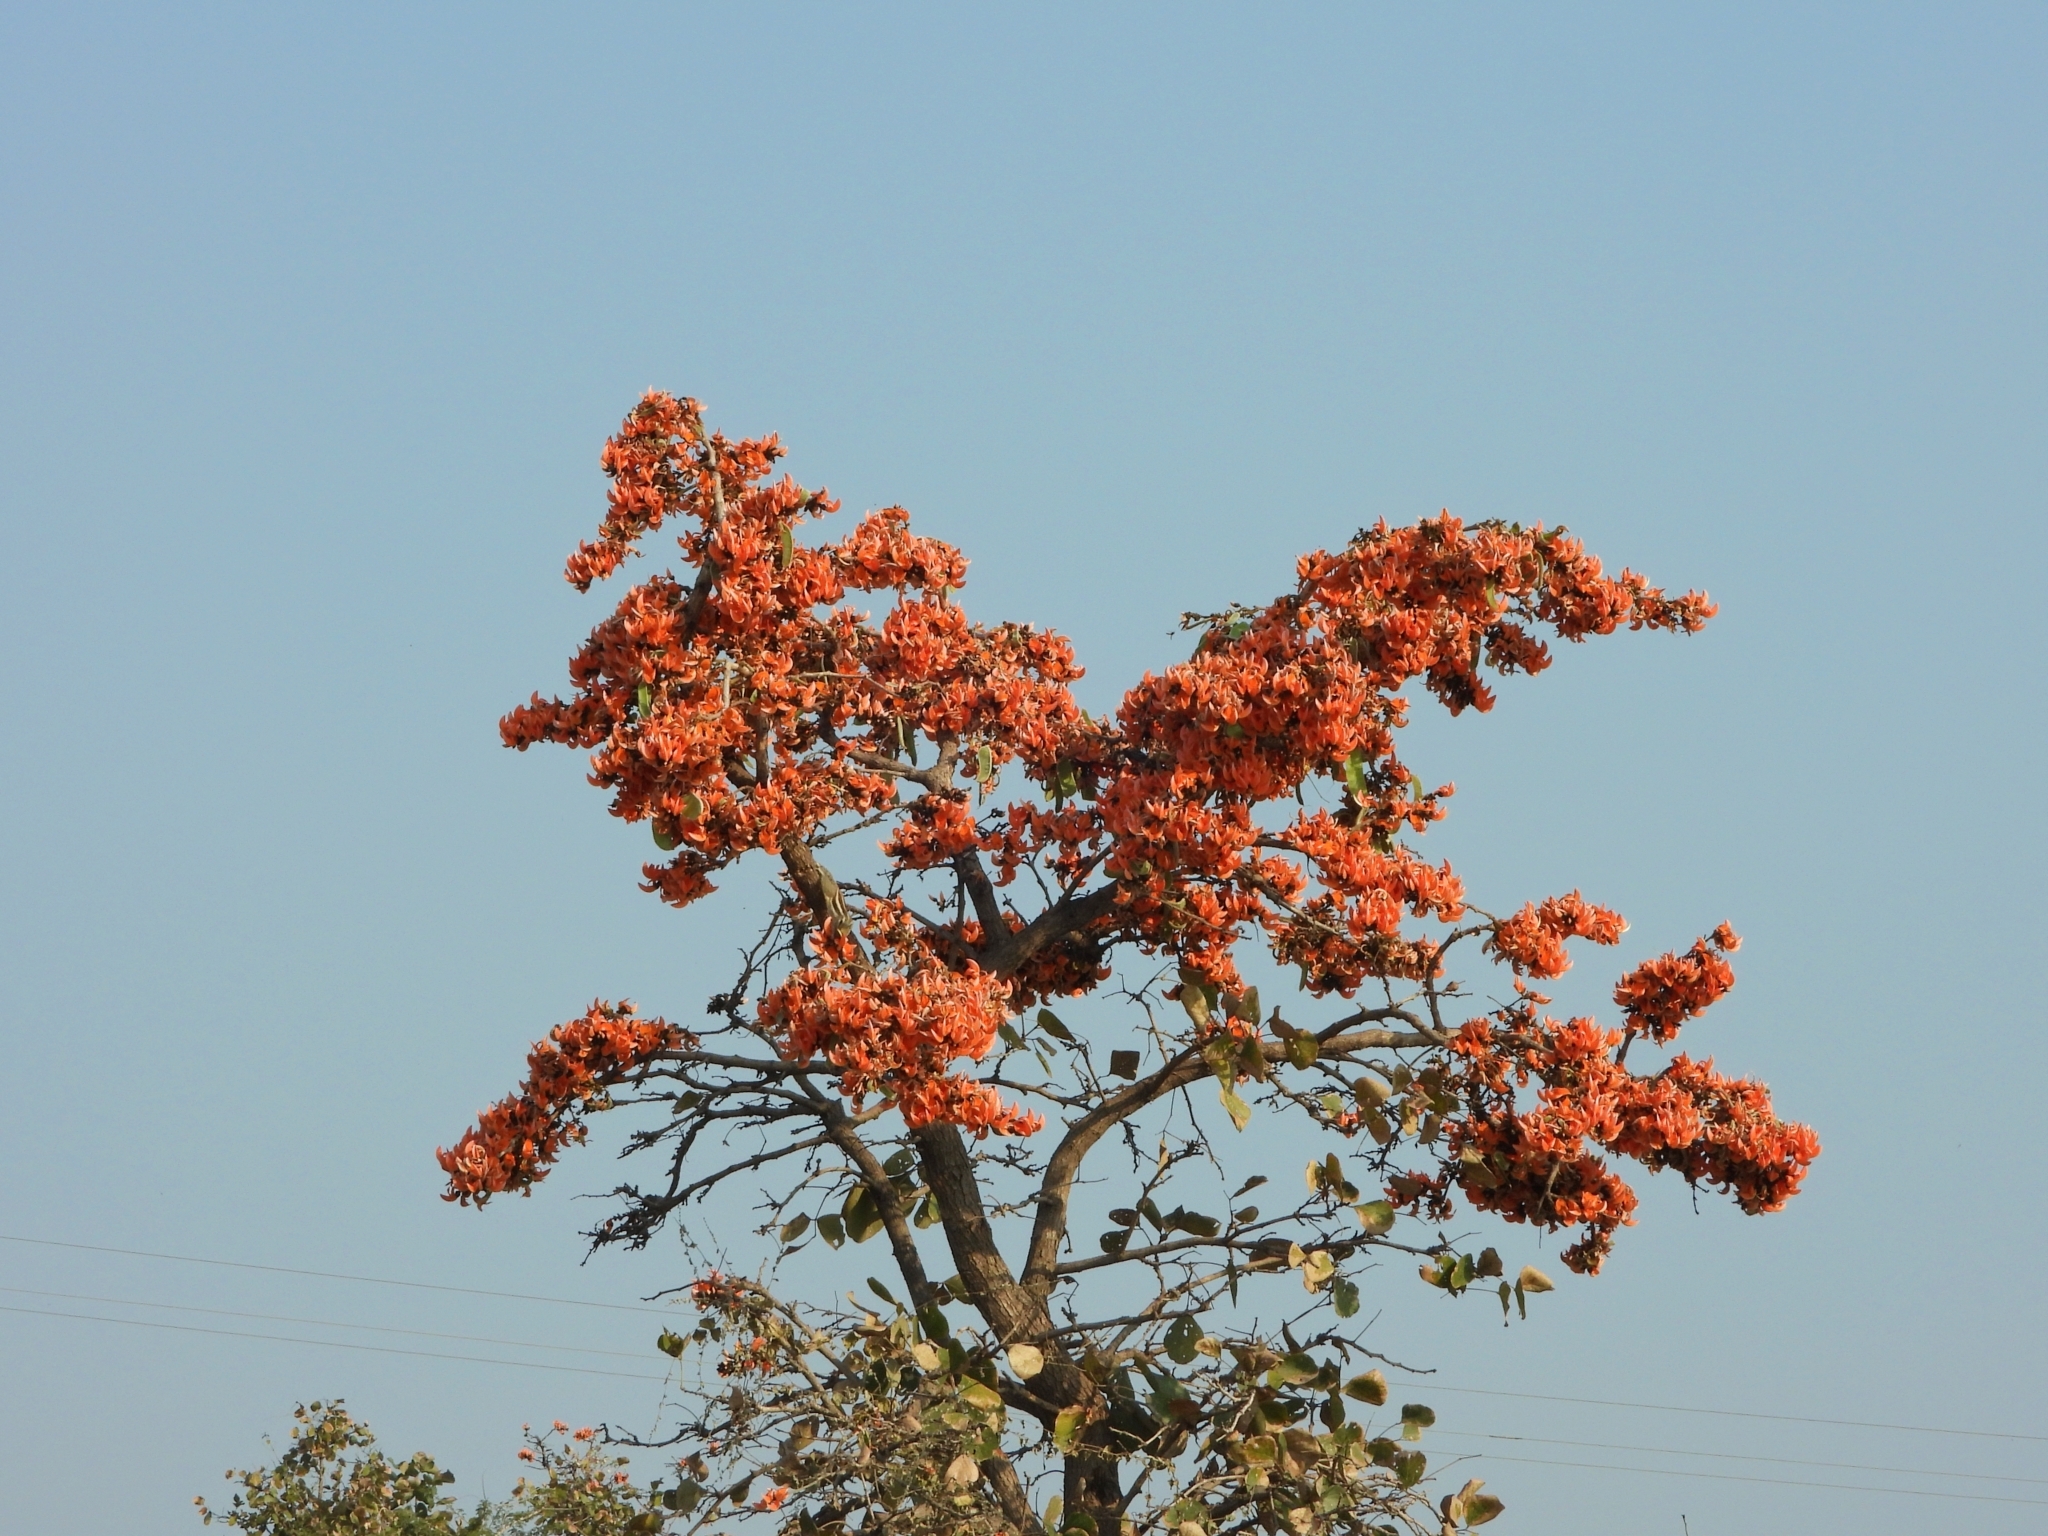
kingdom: Plantae
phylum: Tracheophyta
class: Magnoliopsida
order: Fabales
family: Fabaceae
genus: Butea
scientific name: Butea monosperma
